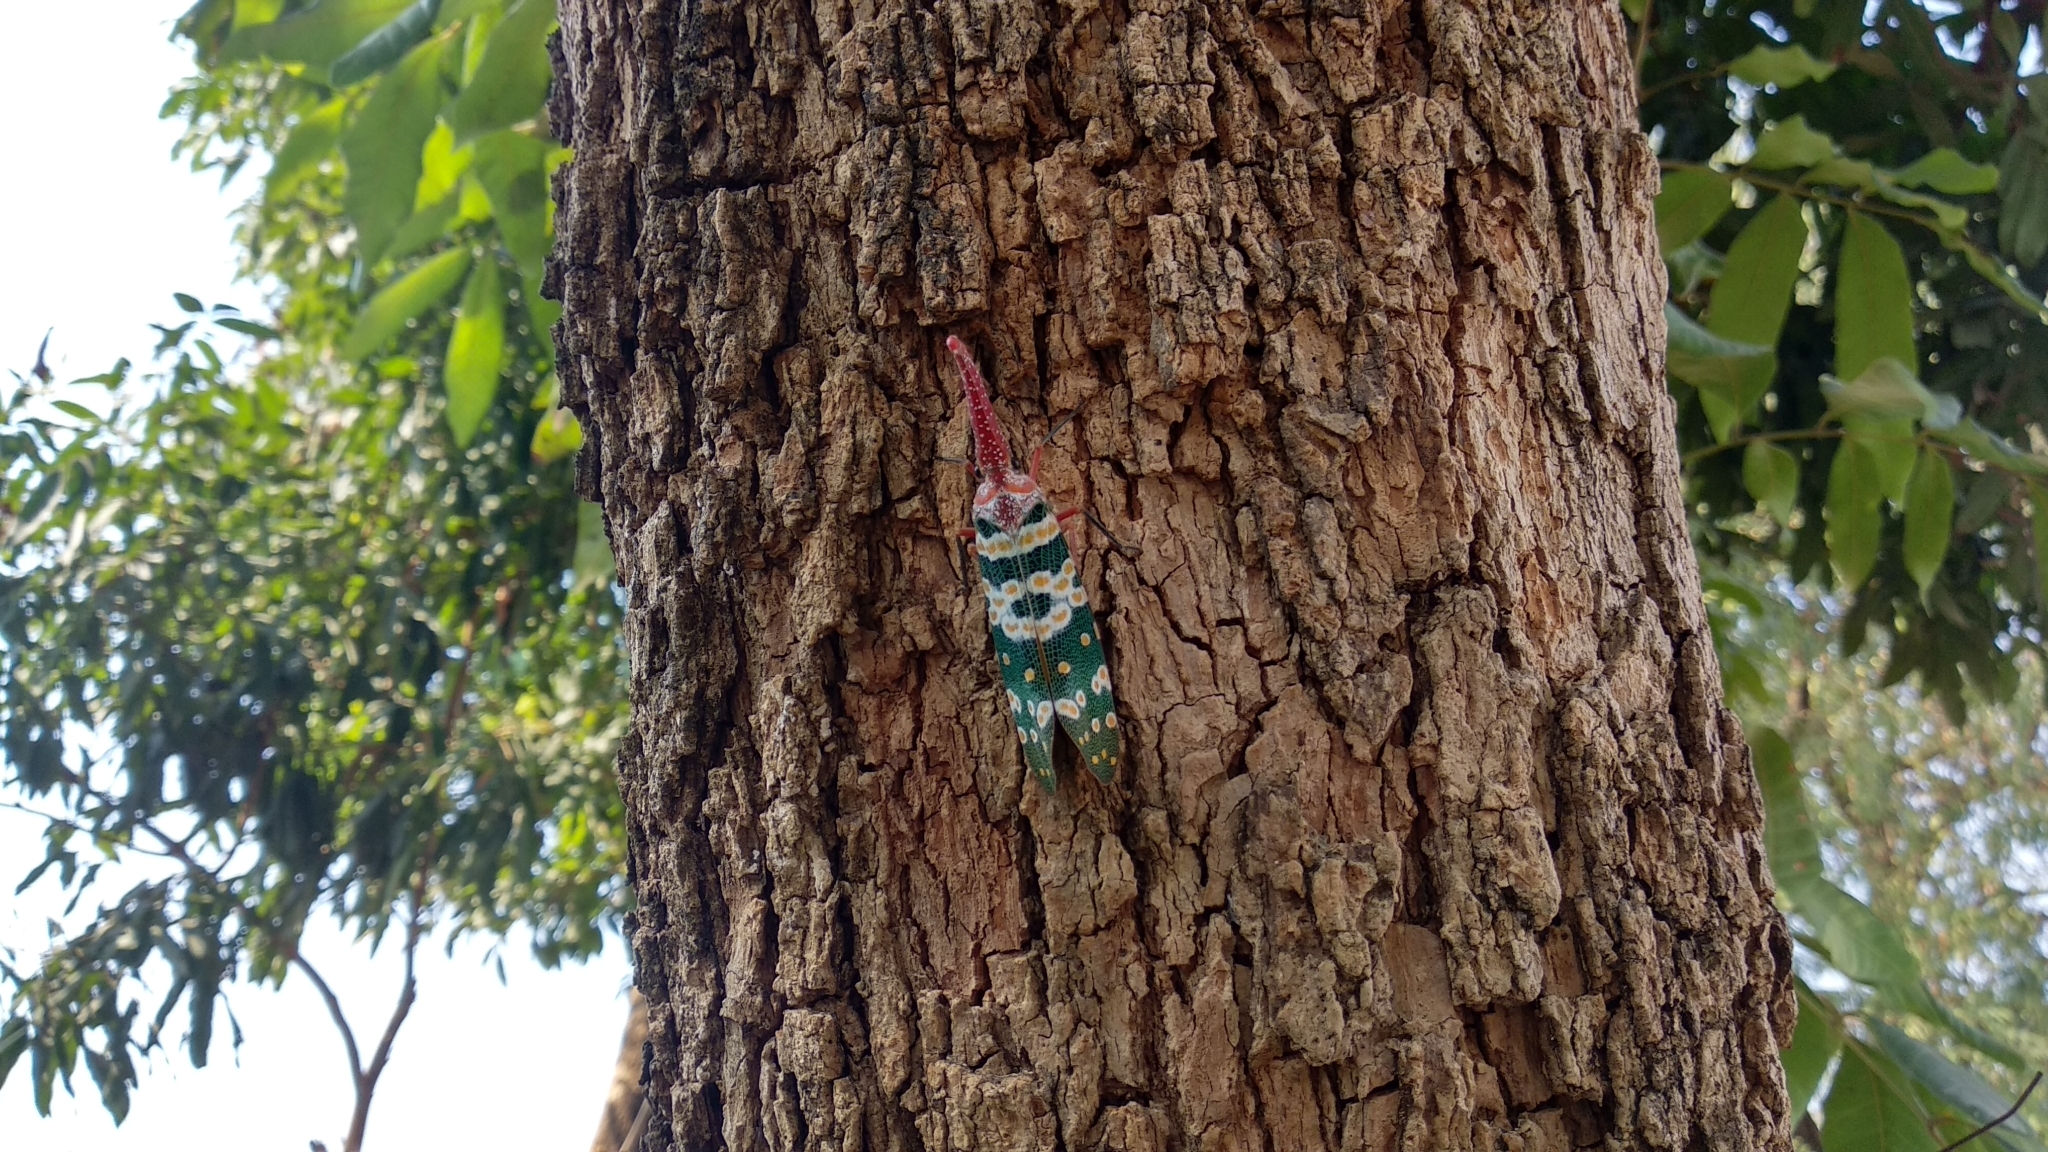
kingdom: Animalia
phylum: Arthropoda
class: Insecta
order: Hemiptera
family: Fulgoridae
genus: Pyrops
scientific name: Pyrops candelaria
